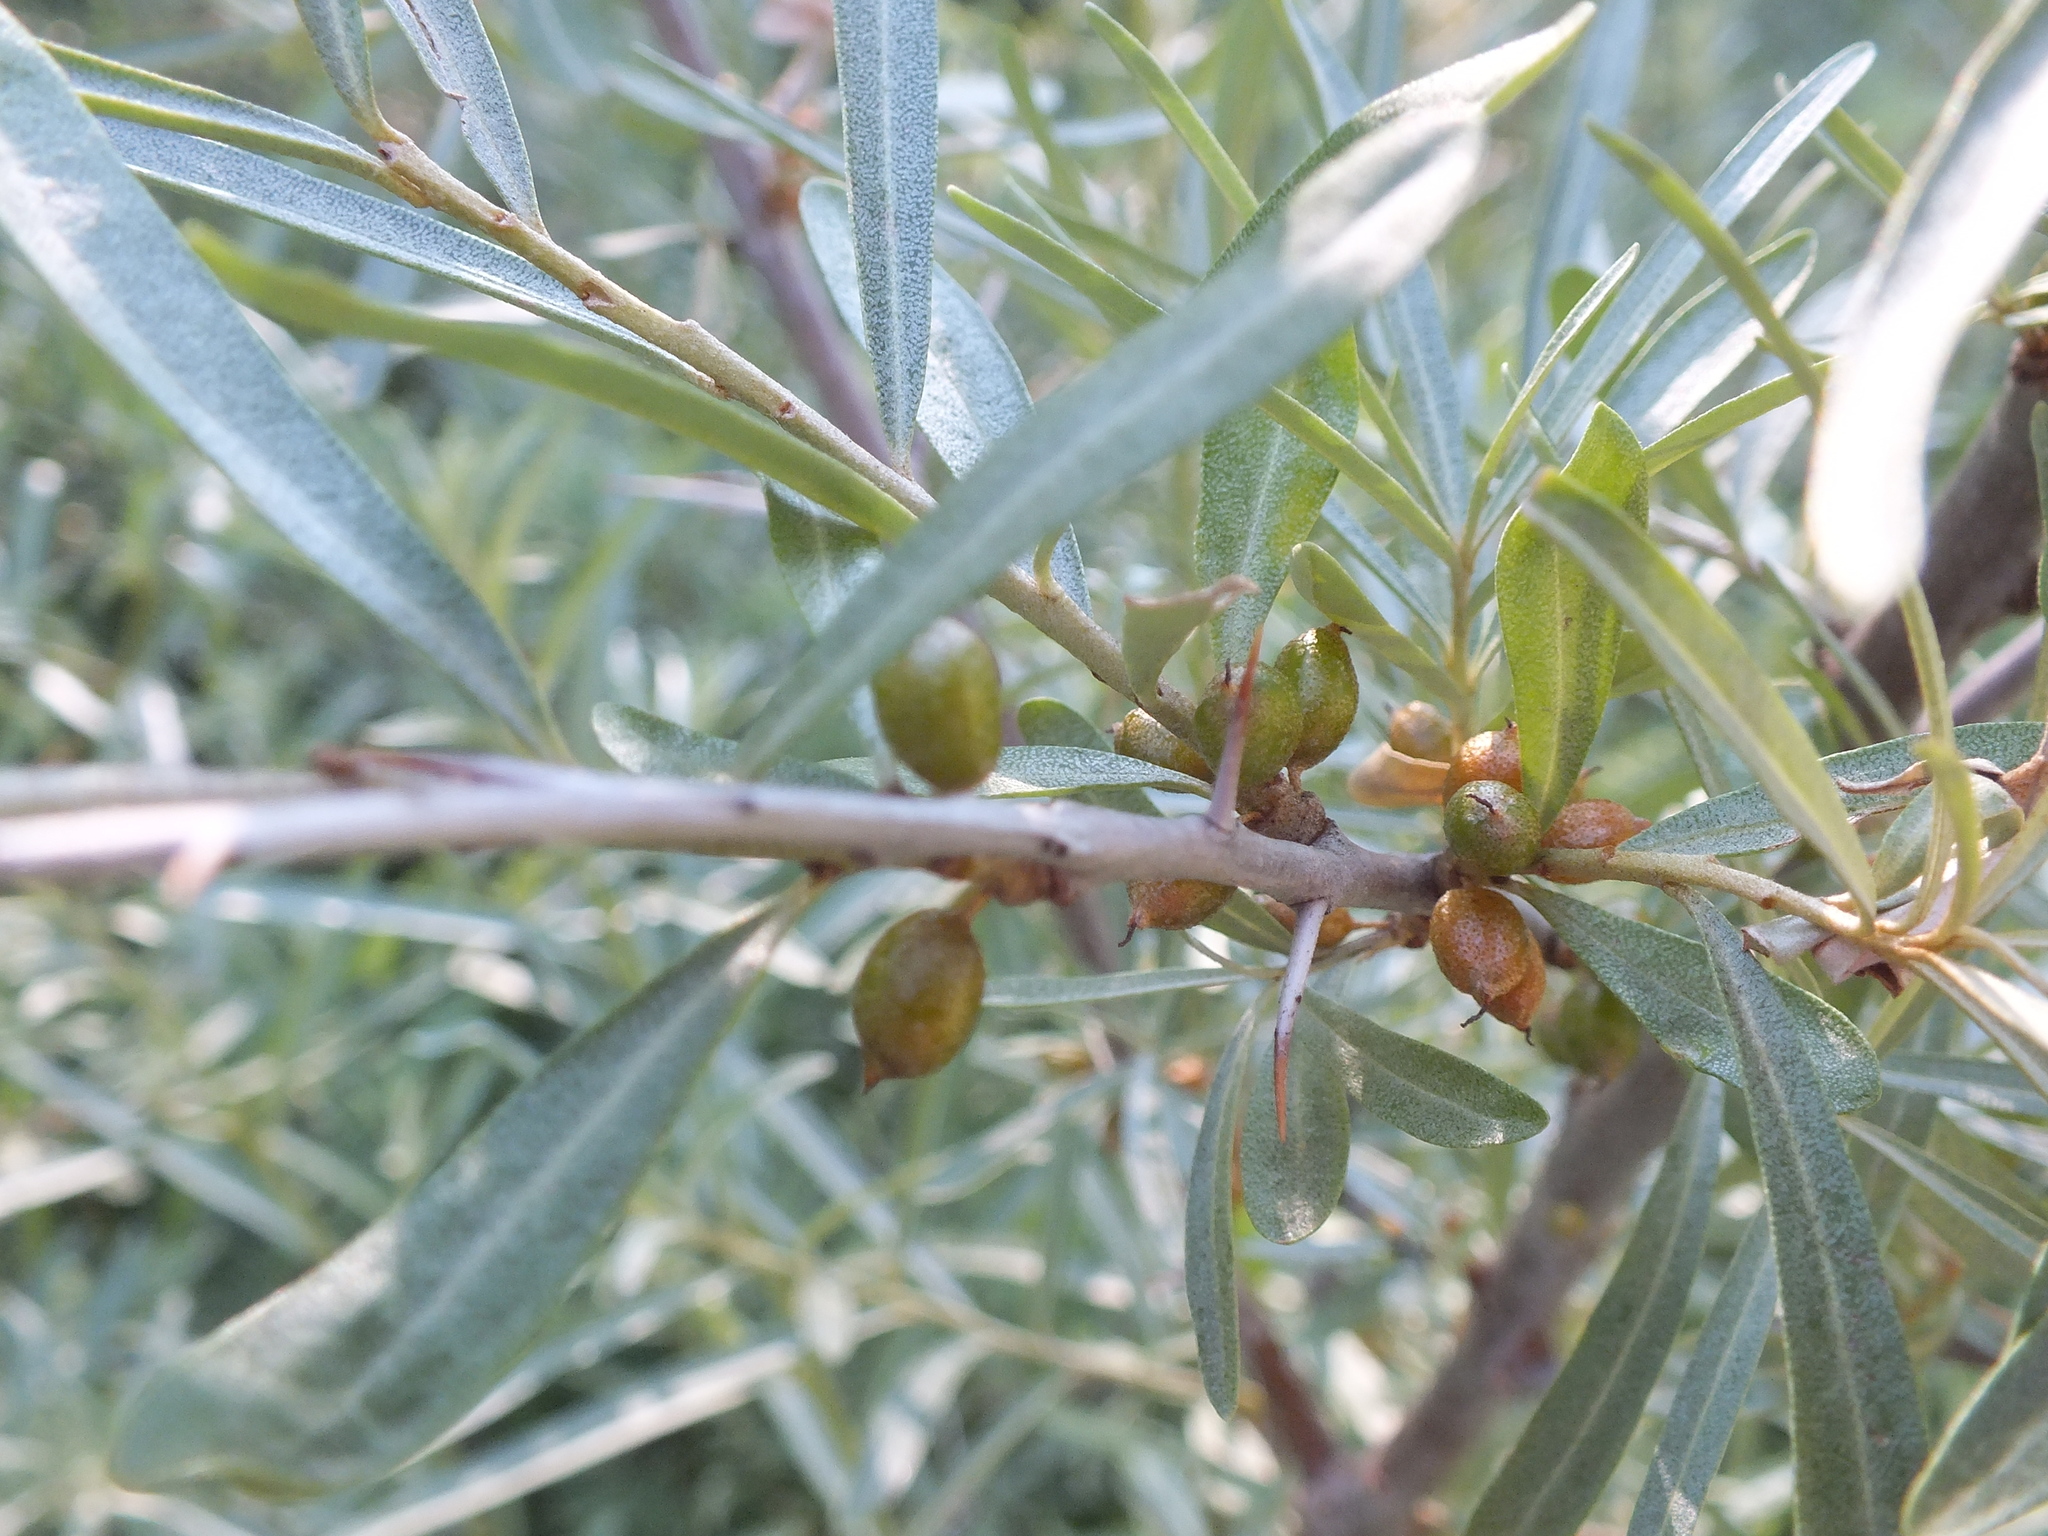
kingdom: Plantae
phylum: Tracheophyta
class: Magnoliopsida
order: Rosales
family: Elaeagnaceae
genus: Hippophae
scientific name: Hippophae rhamnoides
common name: Sea-buckthorn
